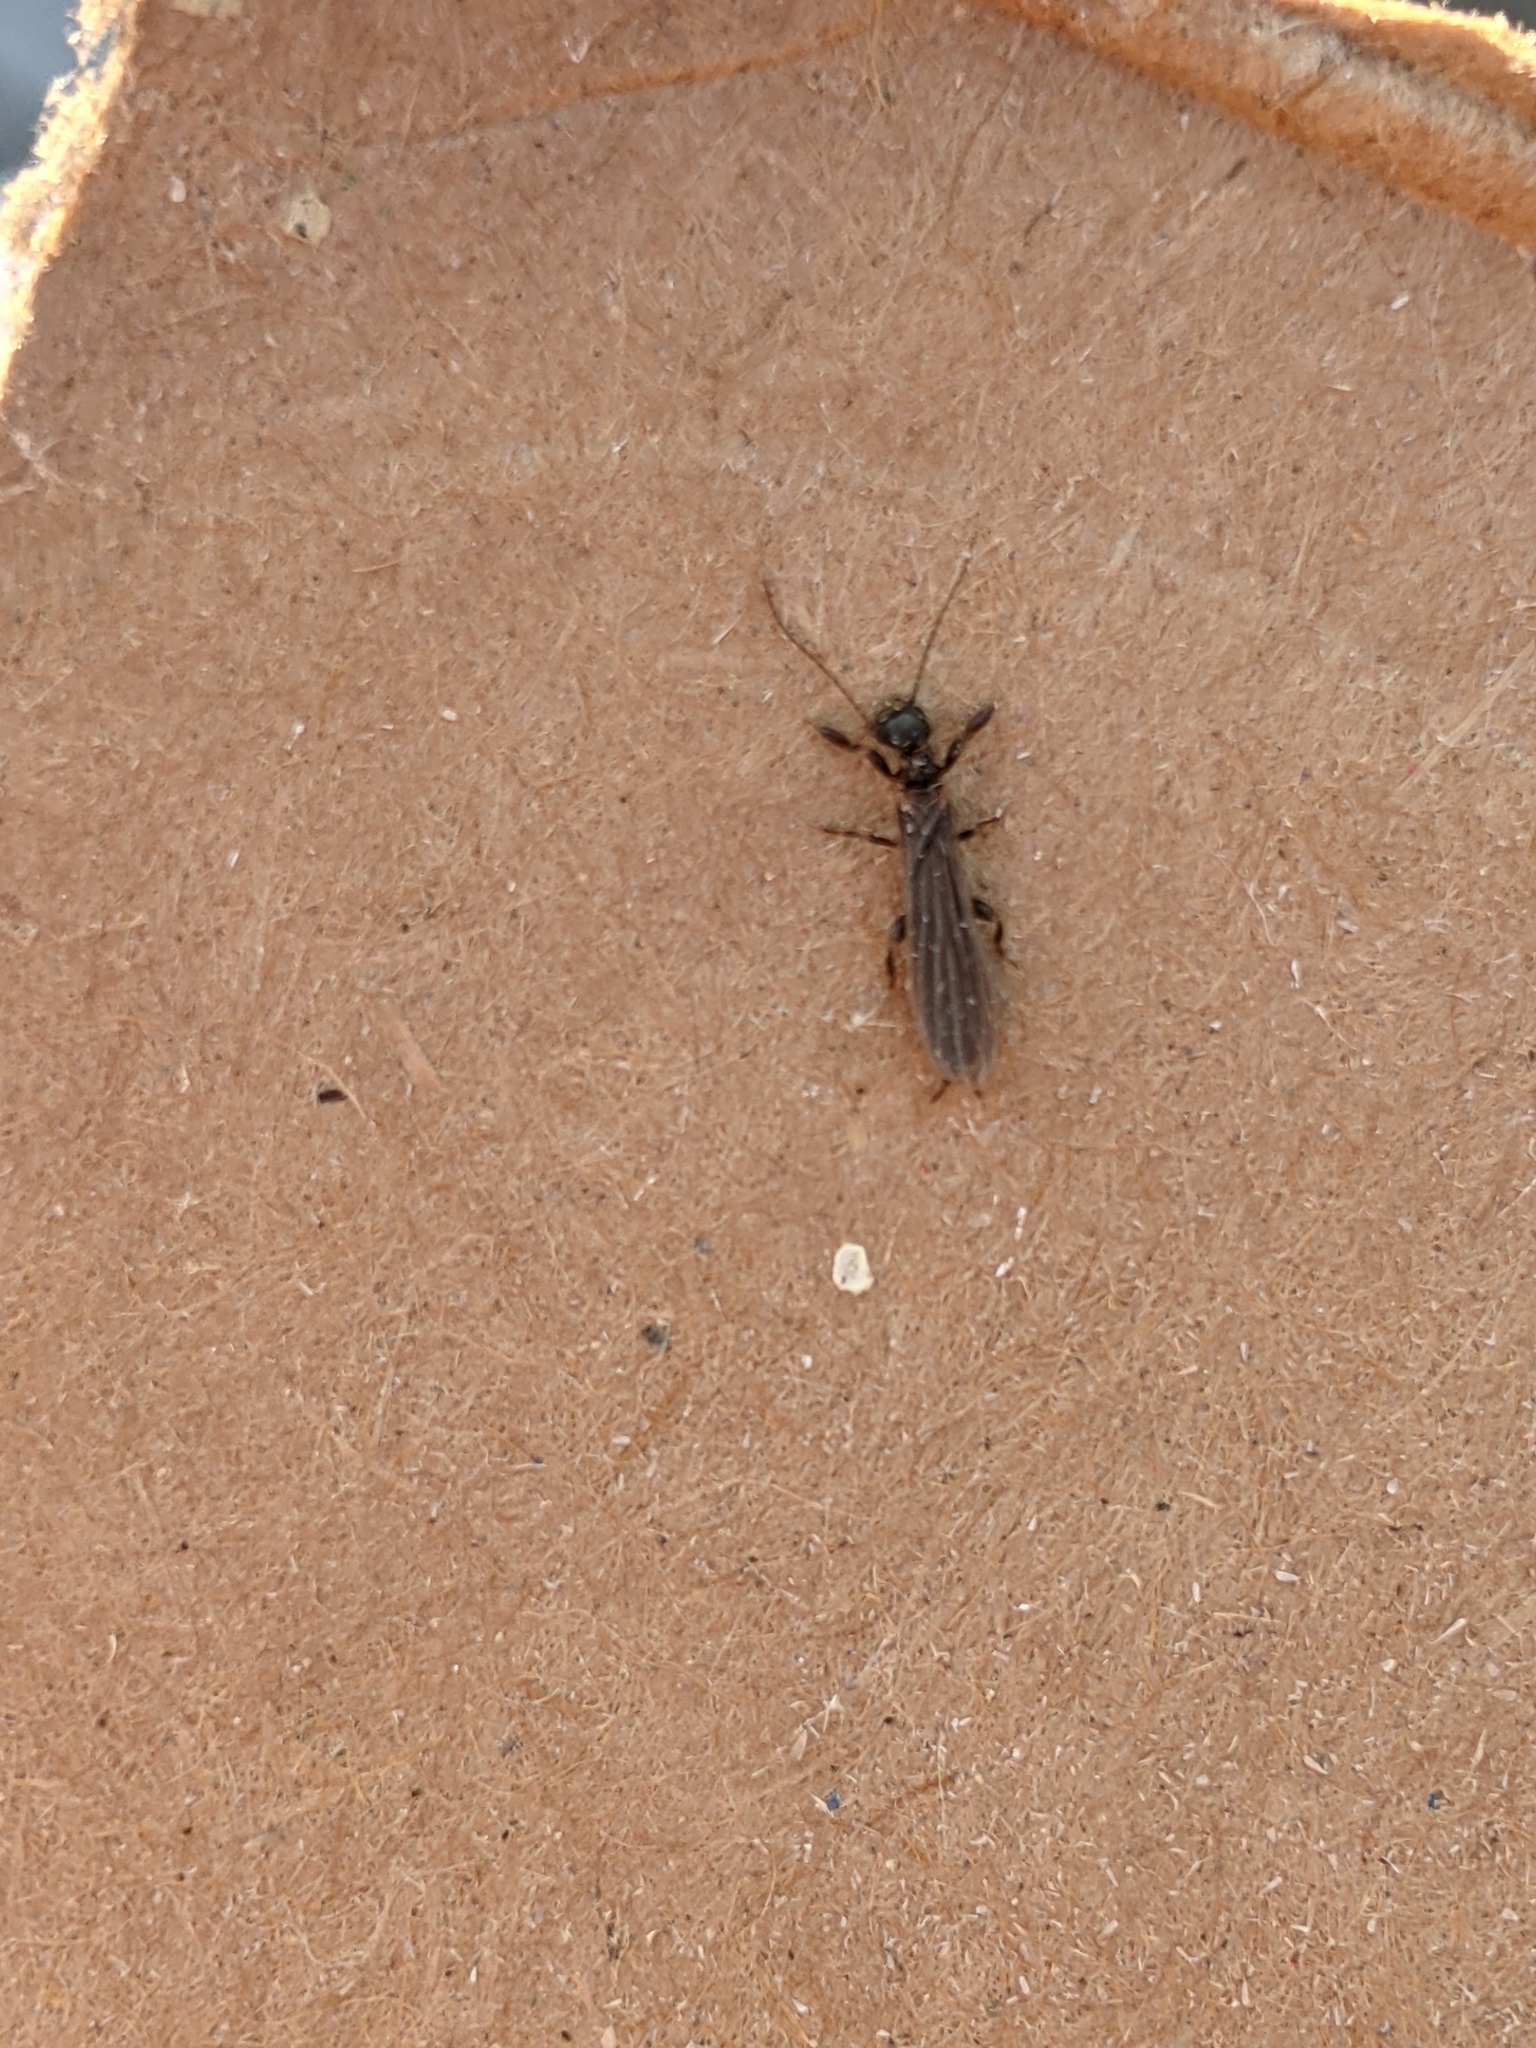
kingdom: Animalia
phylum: Arthropoda
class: Insecta
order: Embioptera
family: Oligotomidae
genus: Oligotoma
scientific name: Oligotoma nigra
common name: Black webspinner
